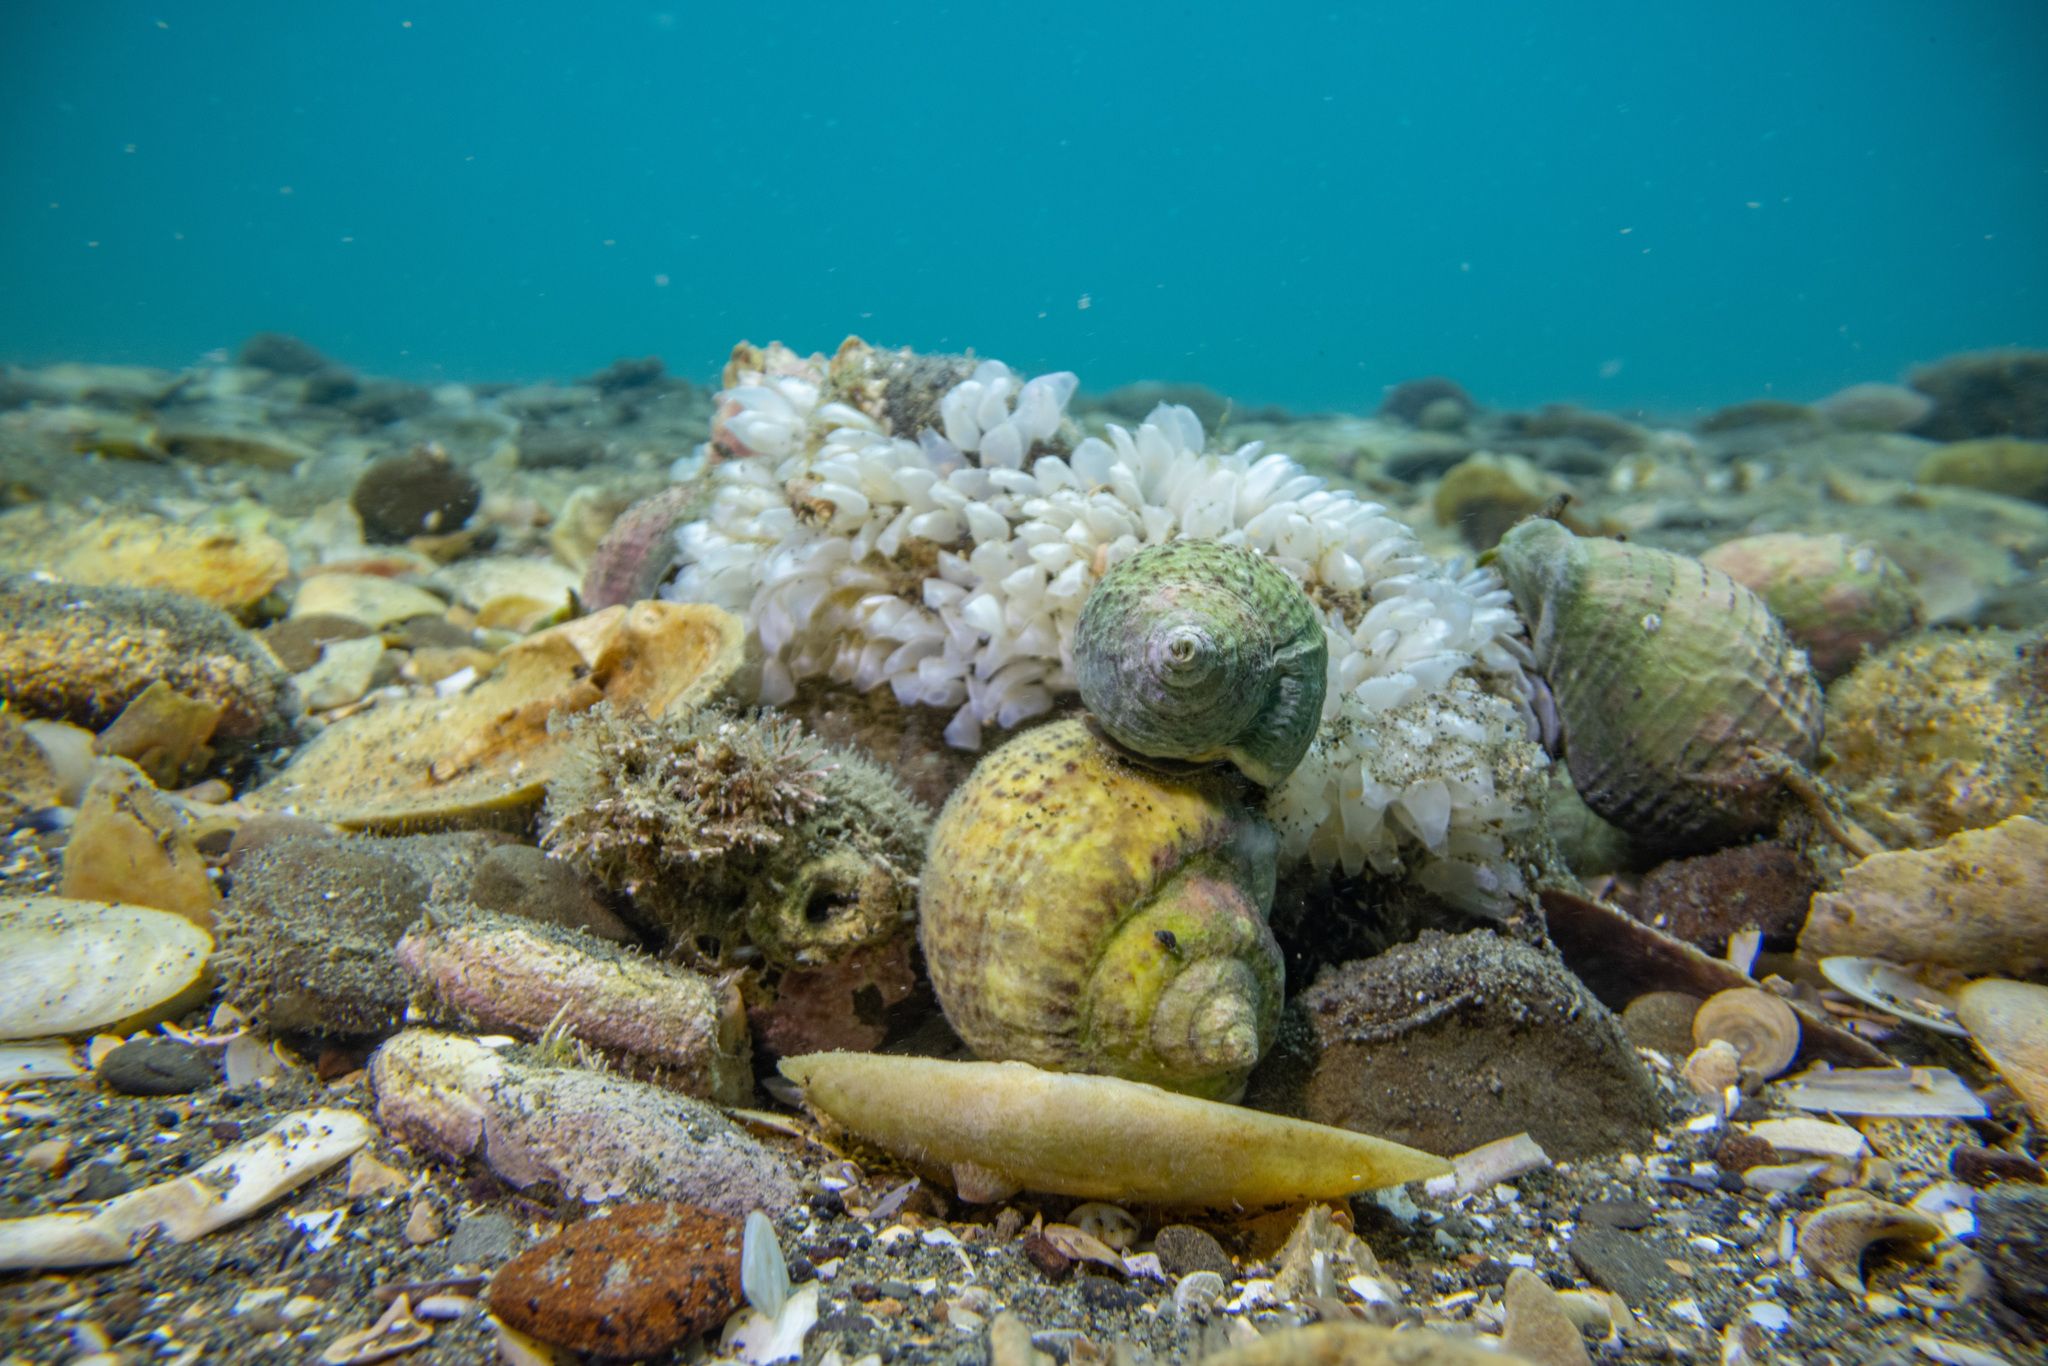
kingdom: Animalia
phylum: Mollusca
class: Gastropoda
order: Neogastropoda
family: Cominellidae
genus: Cominella
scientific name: Cominella adspersa
